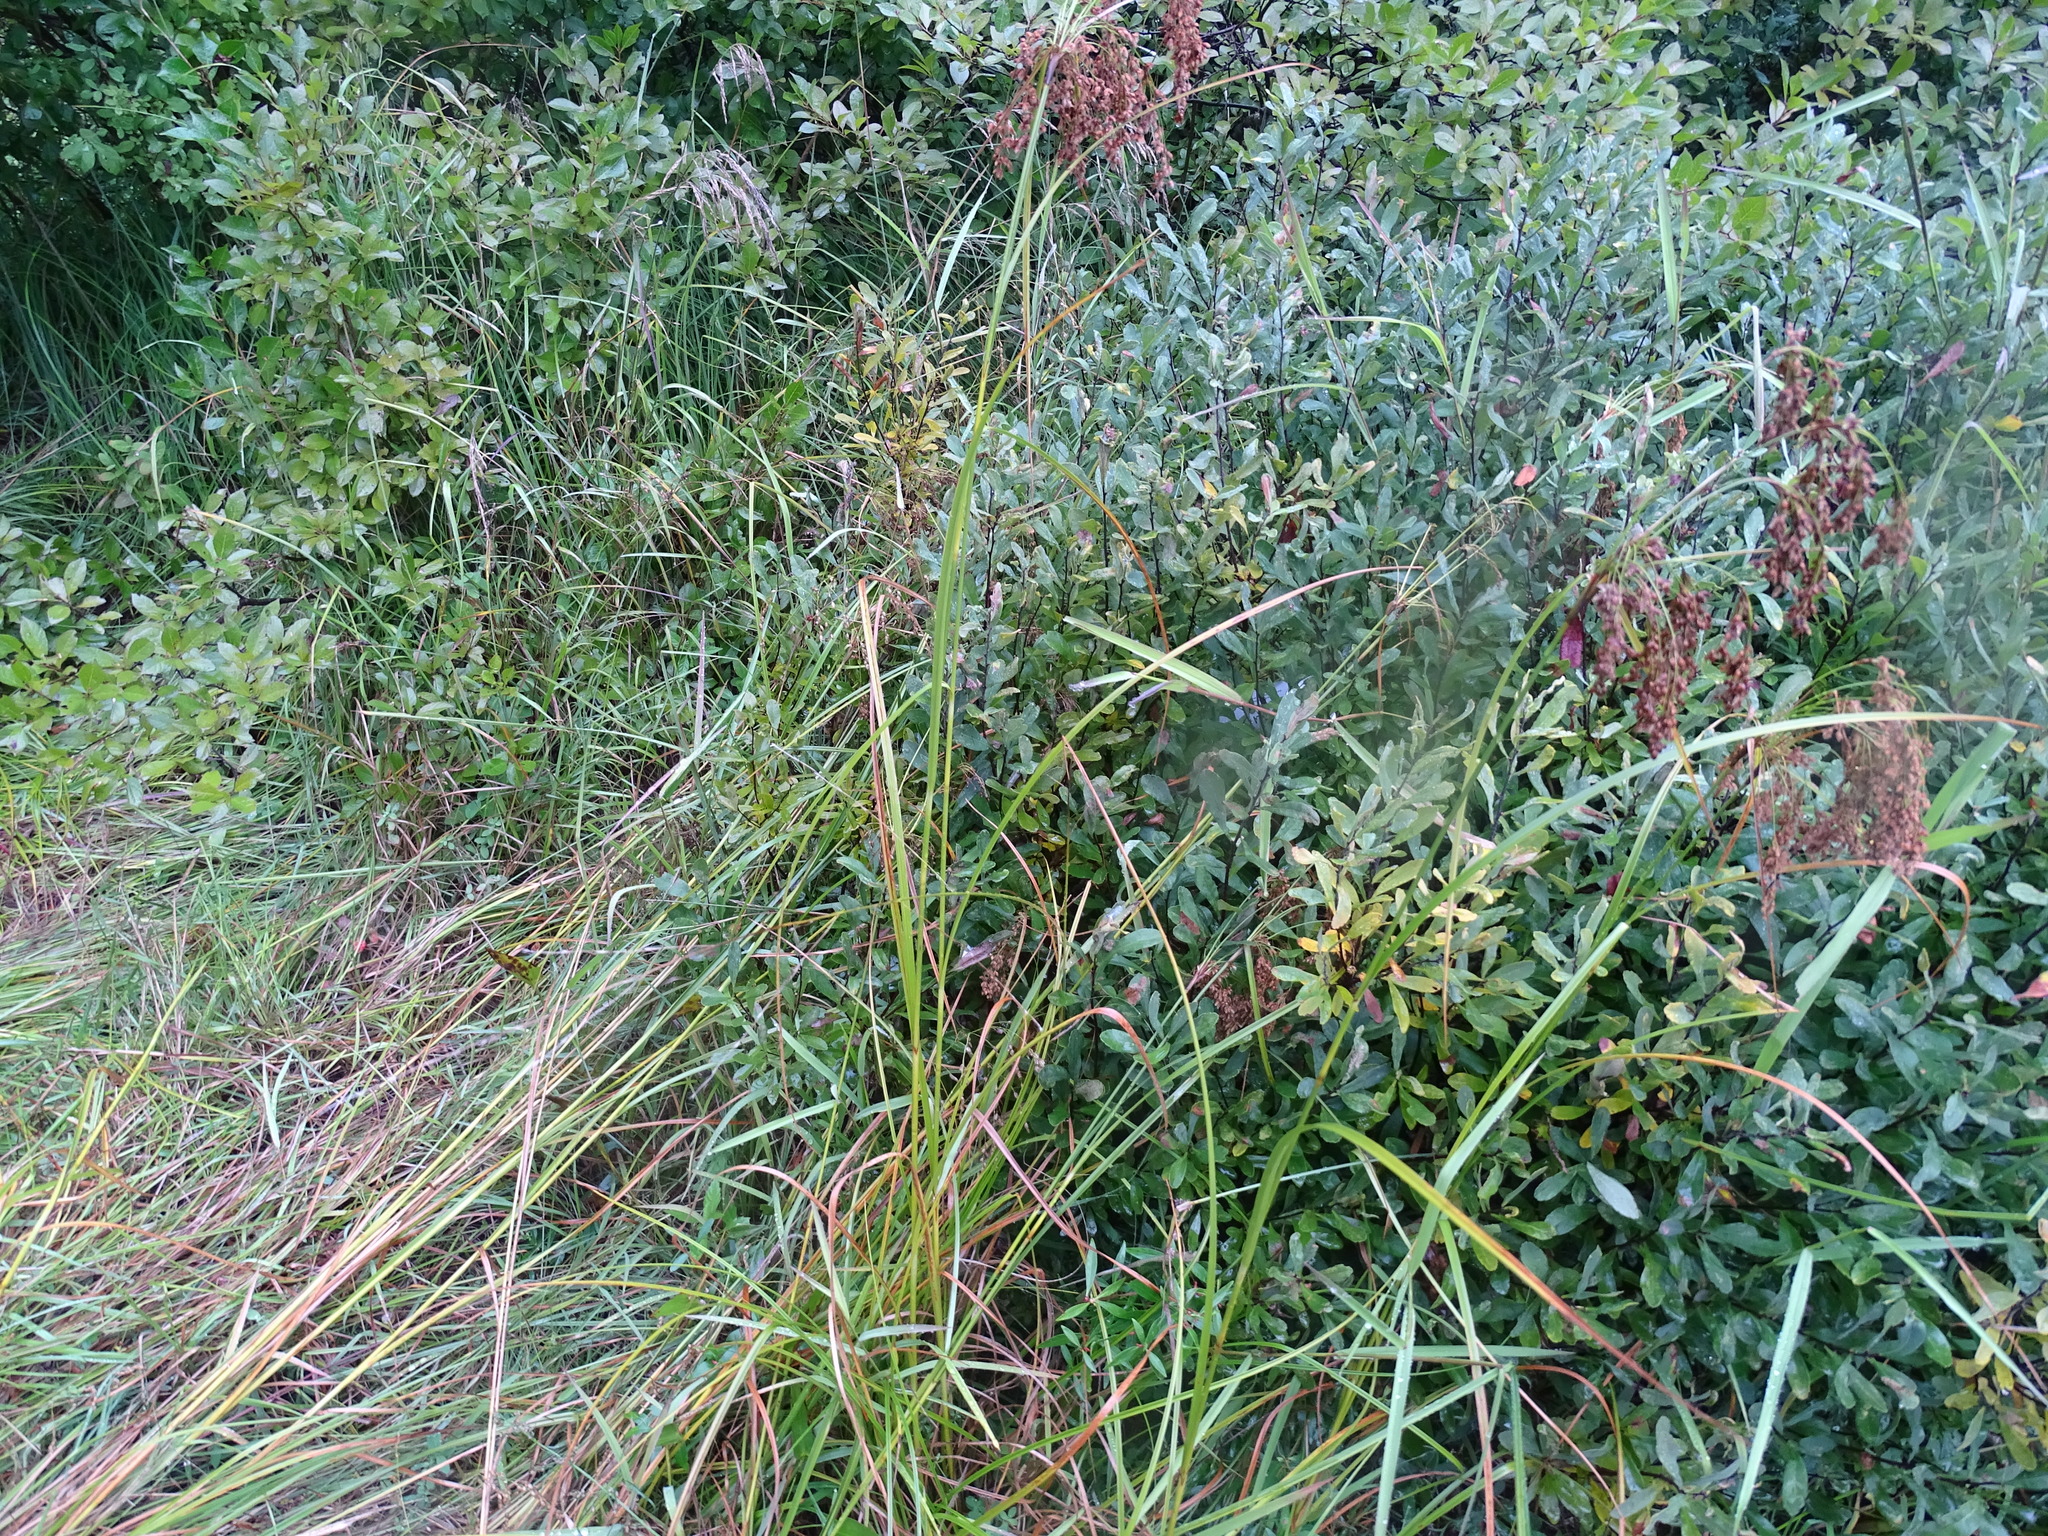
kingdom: Plantae
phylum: Tracheophyta
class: Liliopsida
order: Poales
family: Cyperaceae
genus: Scirpus
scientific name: Scirpus cyperinus
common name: Black-sheathed bulrush
